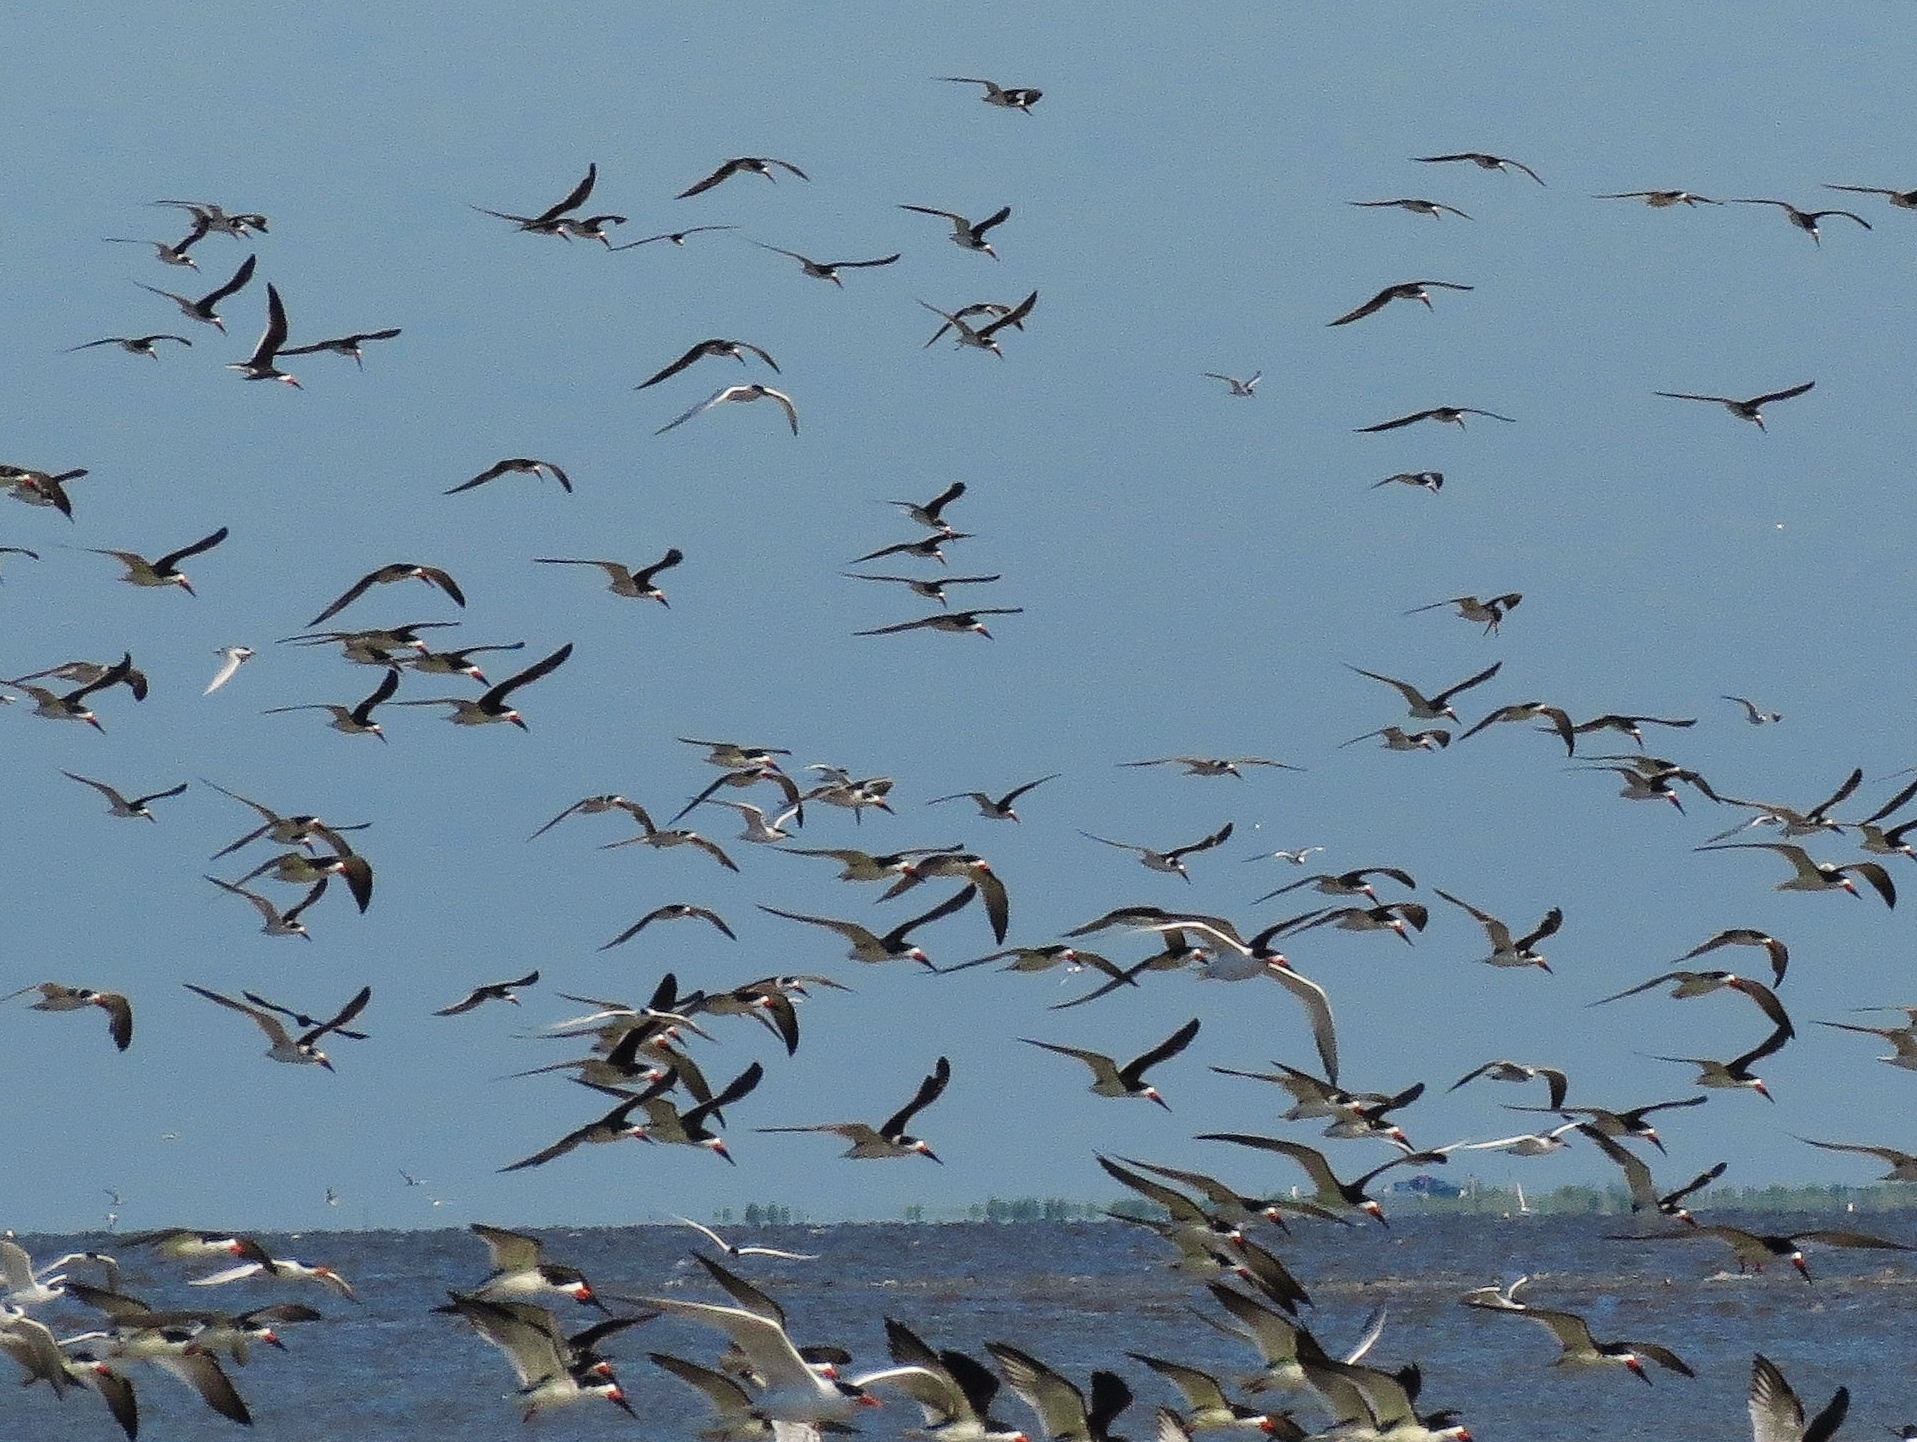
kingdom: Animalia
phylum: Chordata
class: Aves
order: Charadriiformes
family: Laridae
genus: Rynchops
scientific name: Rynchops niger
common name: Black skimmer
